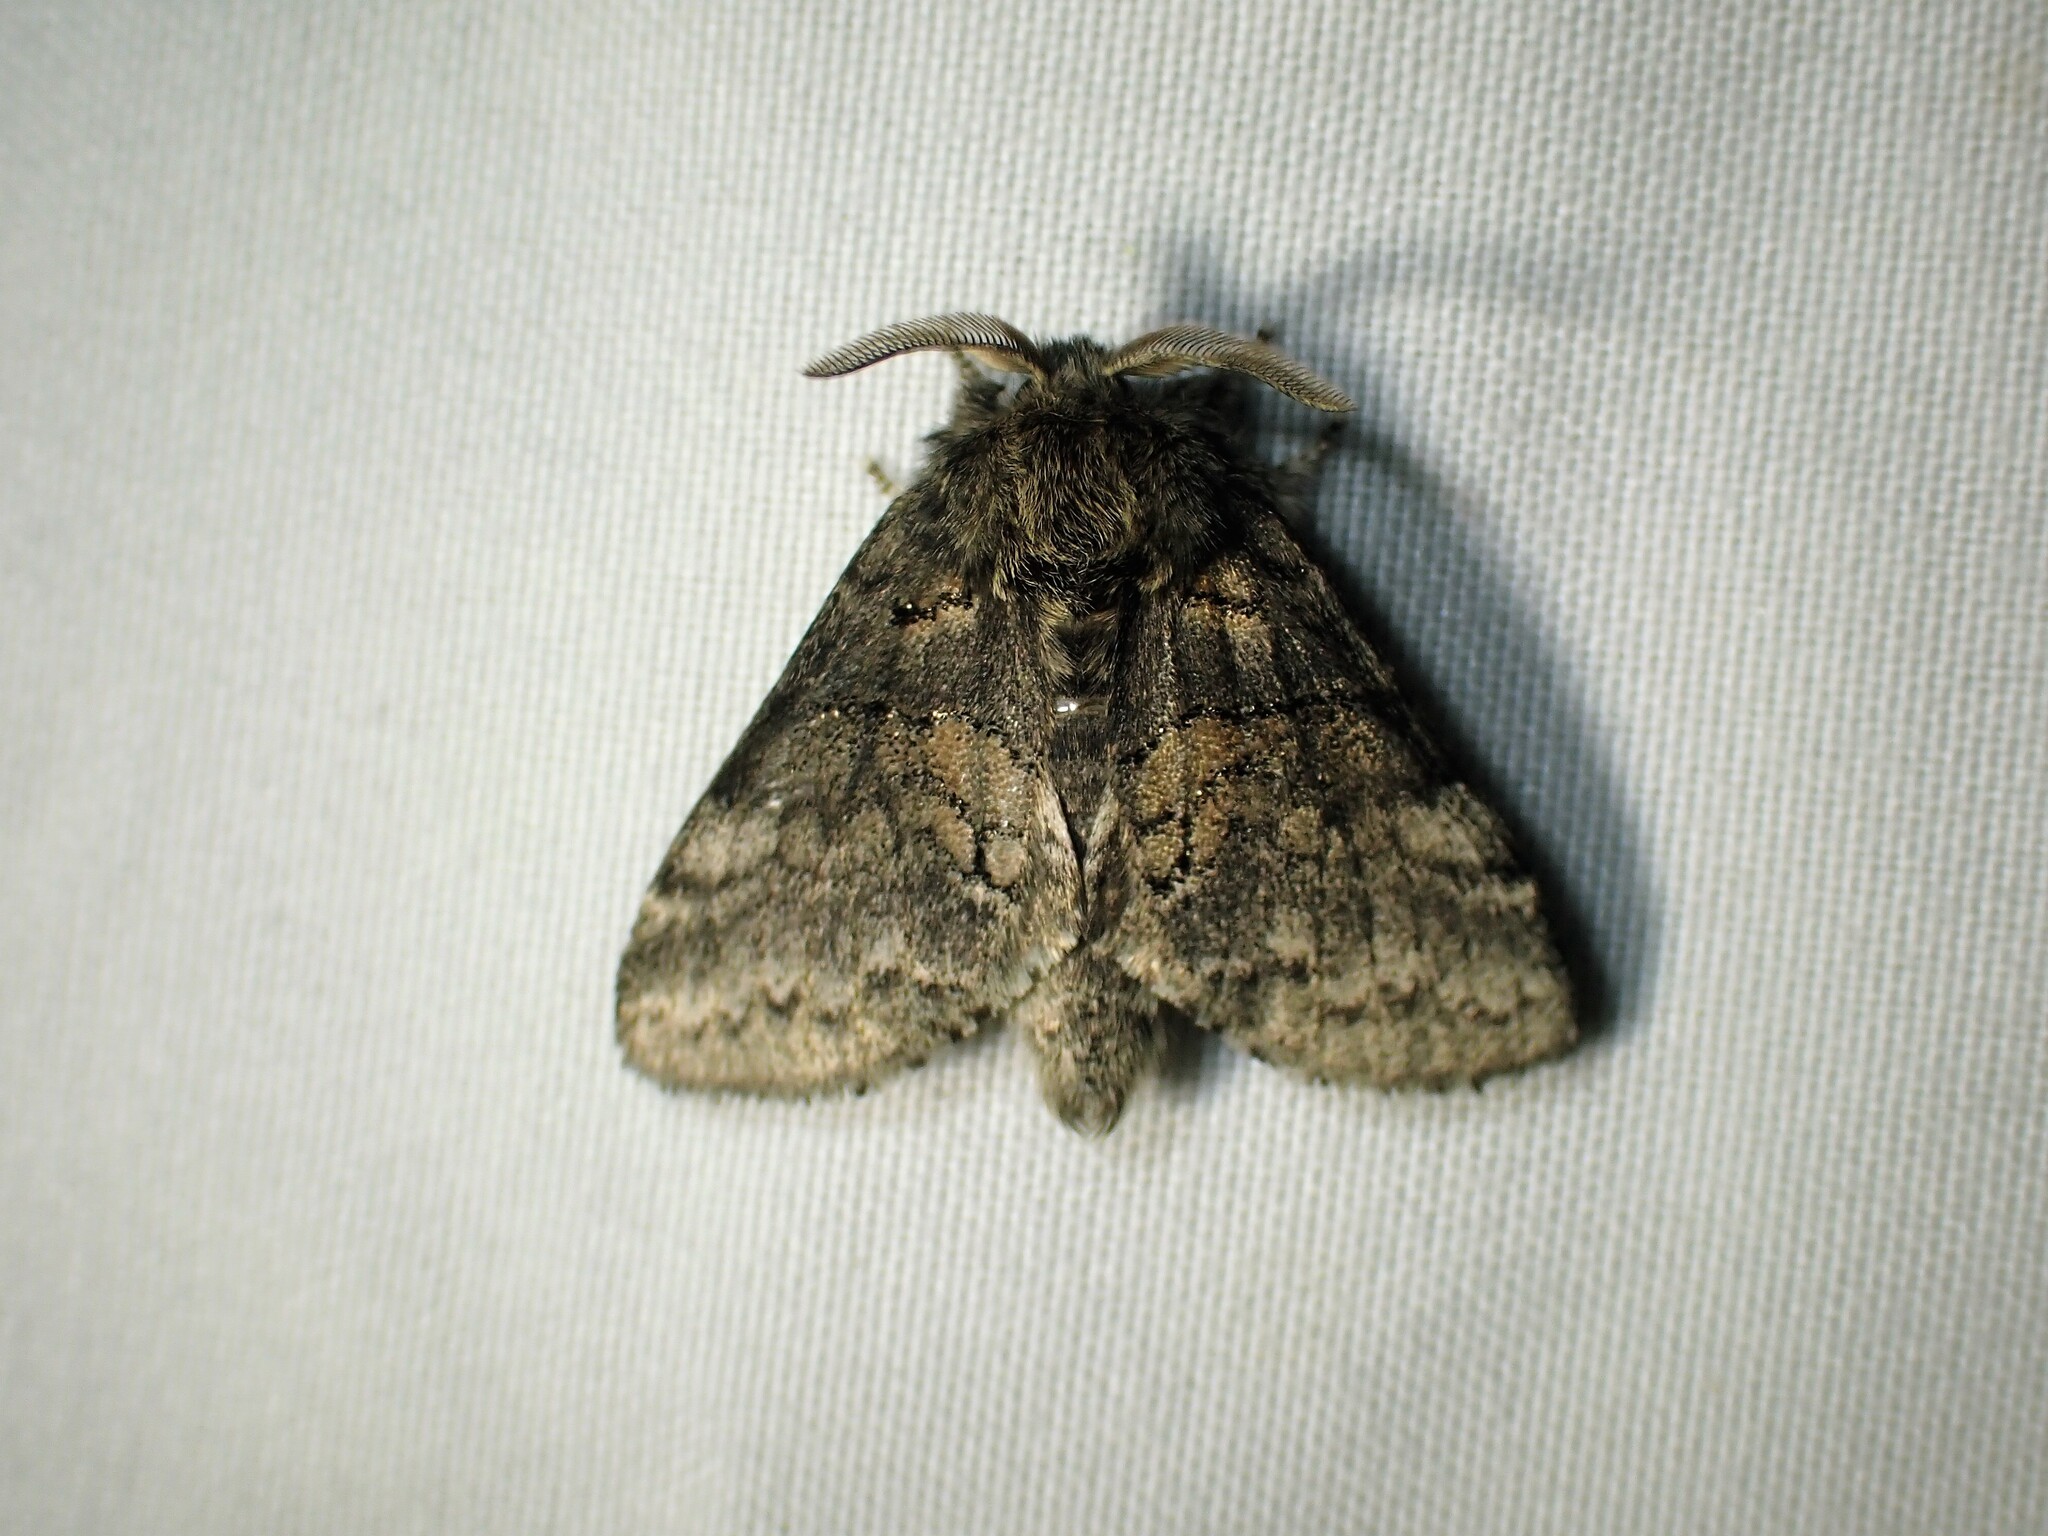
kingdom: Animalia
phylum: Arthropoda
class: Insecta
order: Lepidoptera
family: Notodontidae
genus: Gluphisia
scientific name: Gluphisia septentrionis
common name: Common gluphisia
